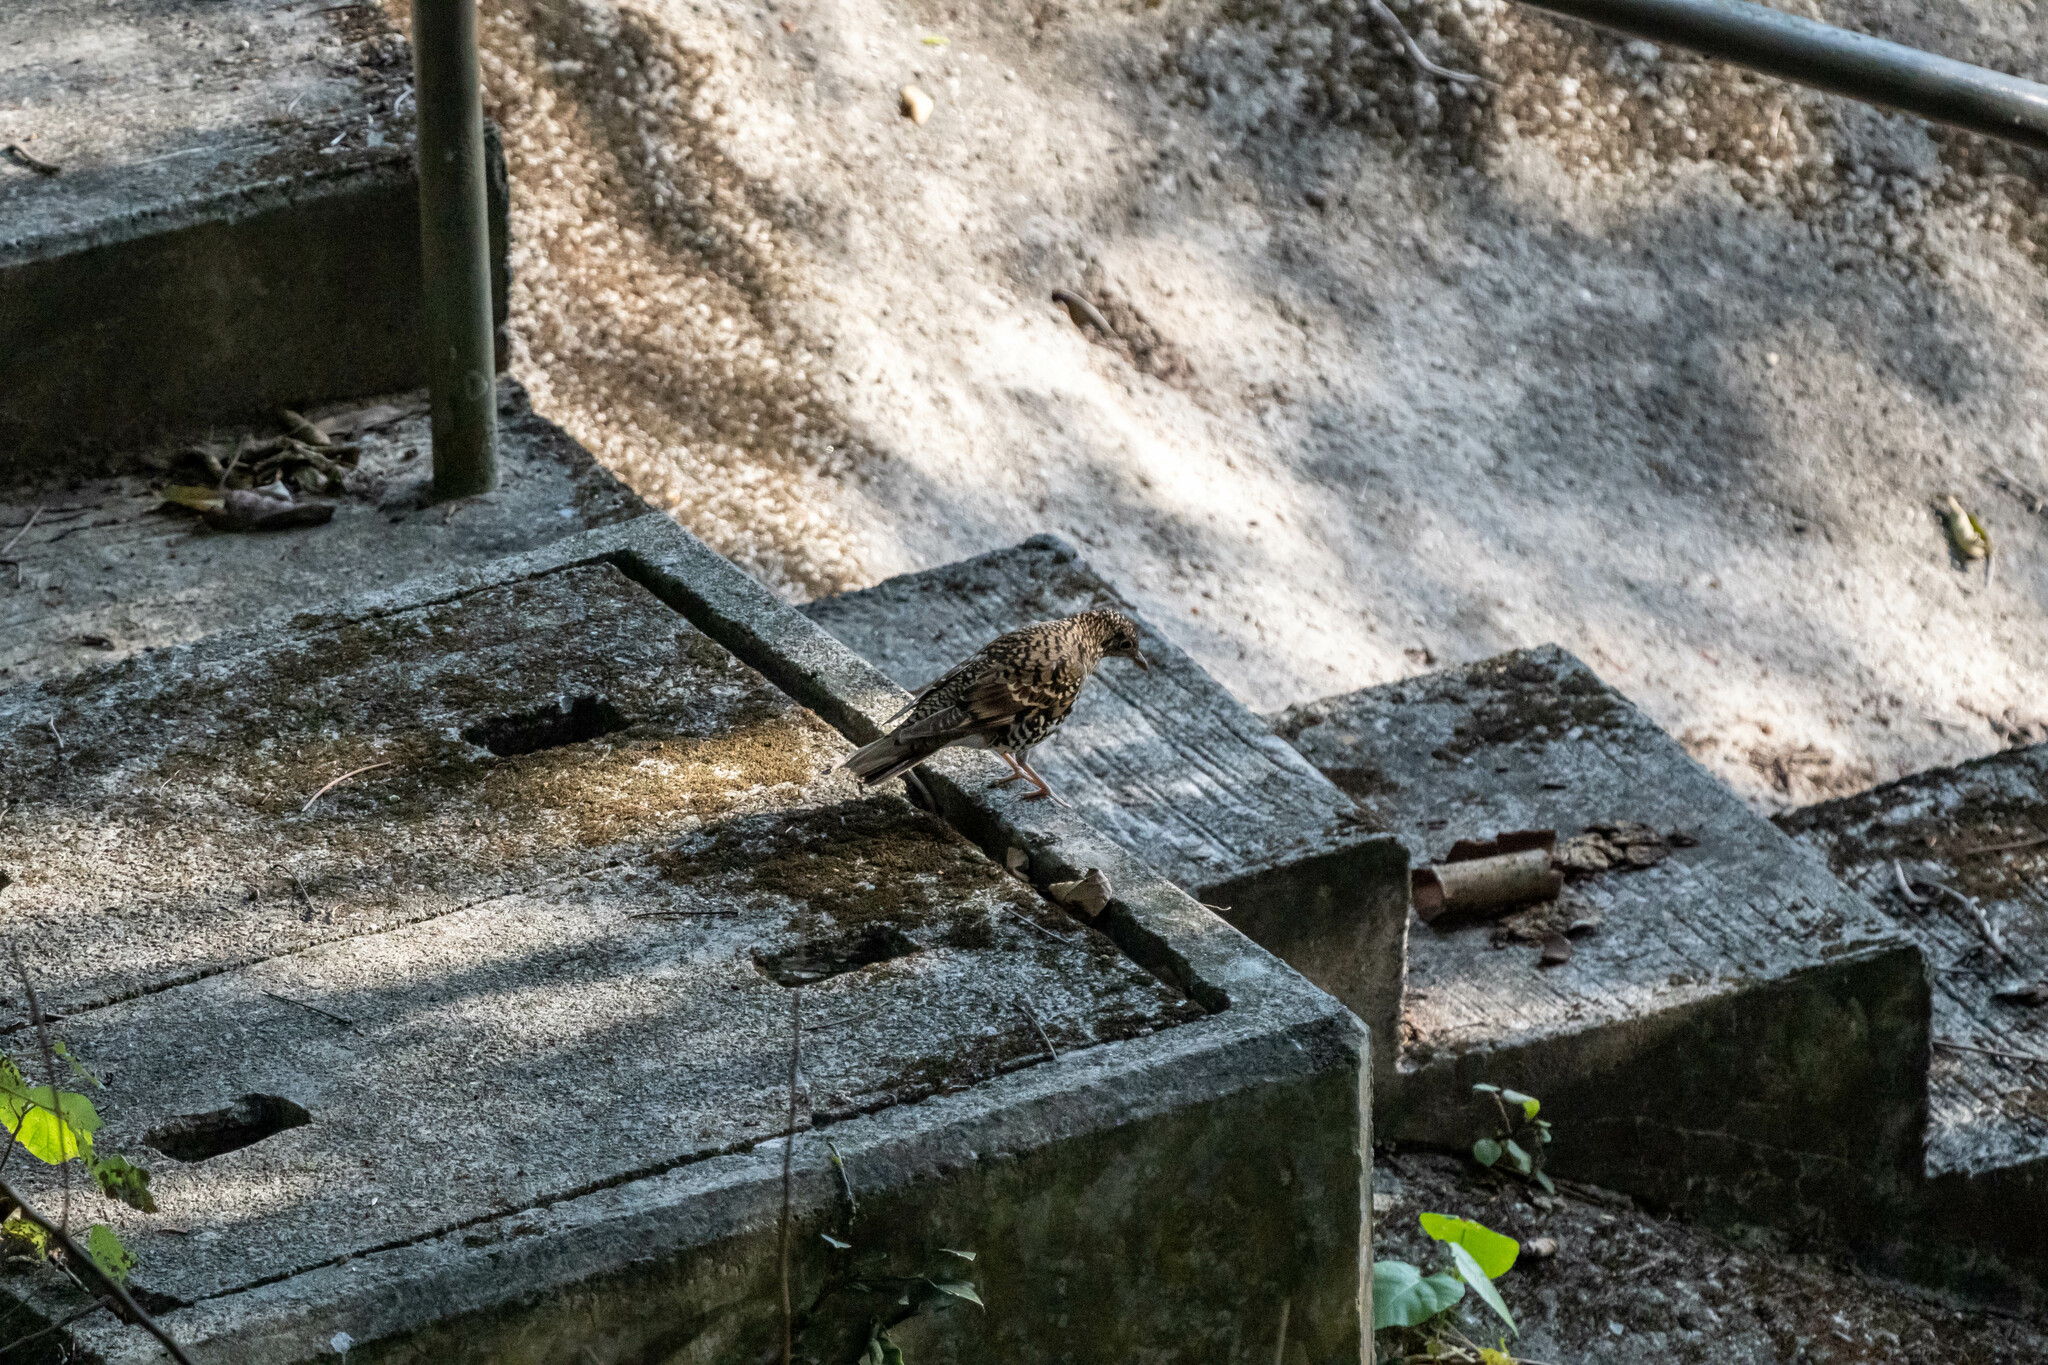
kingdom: Animalia
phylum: Chordata
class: Aves
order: Passeriformes
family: Turdidae
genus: Zoothera
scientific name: Zoothera aurea
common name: White's thrush
